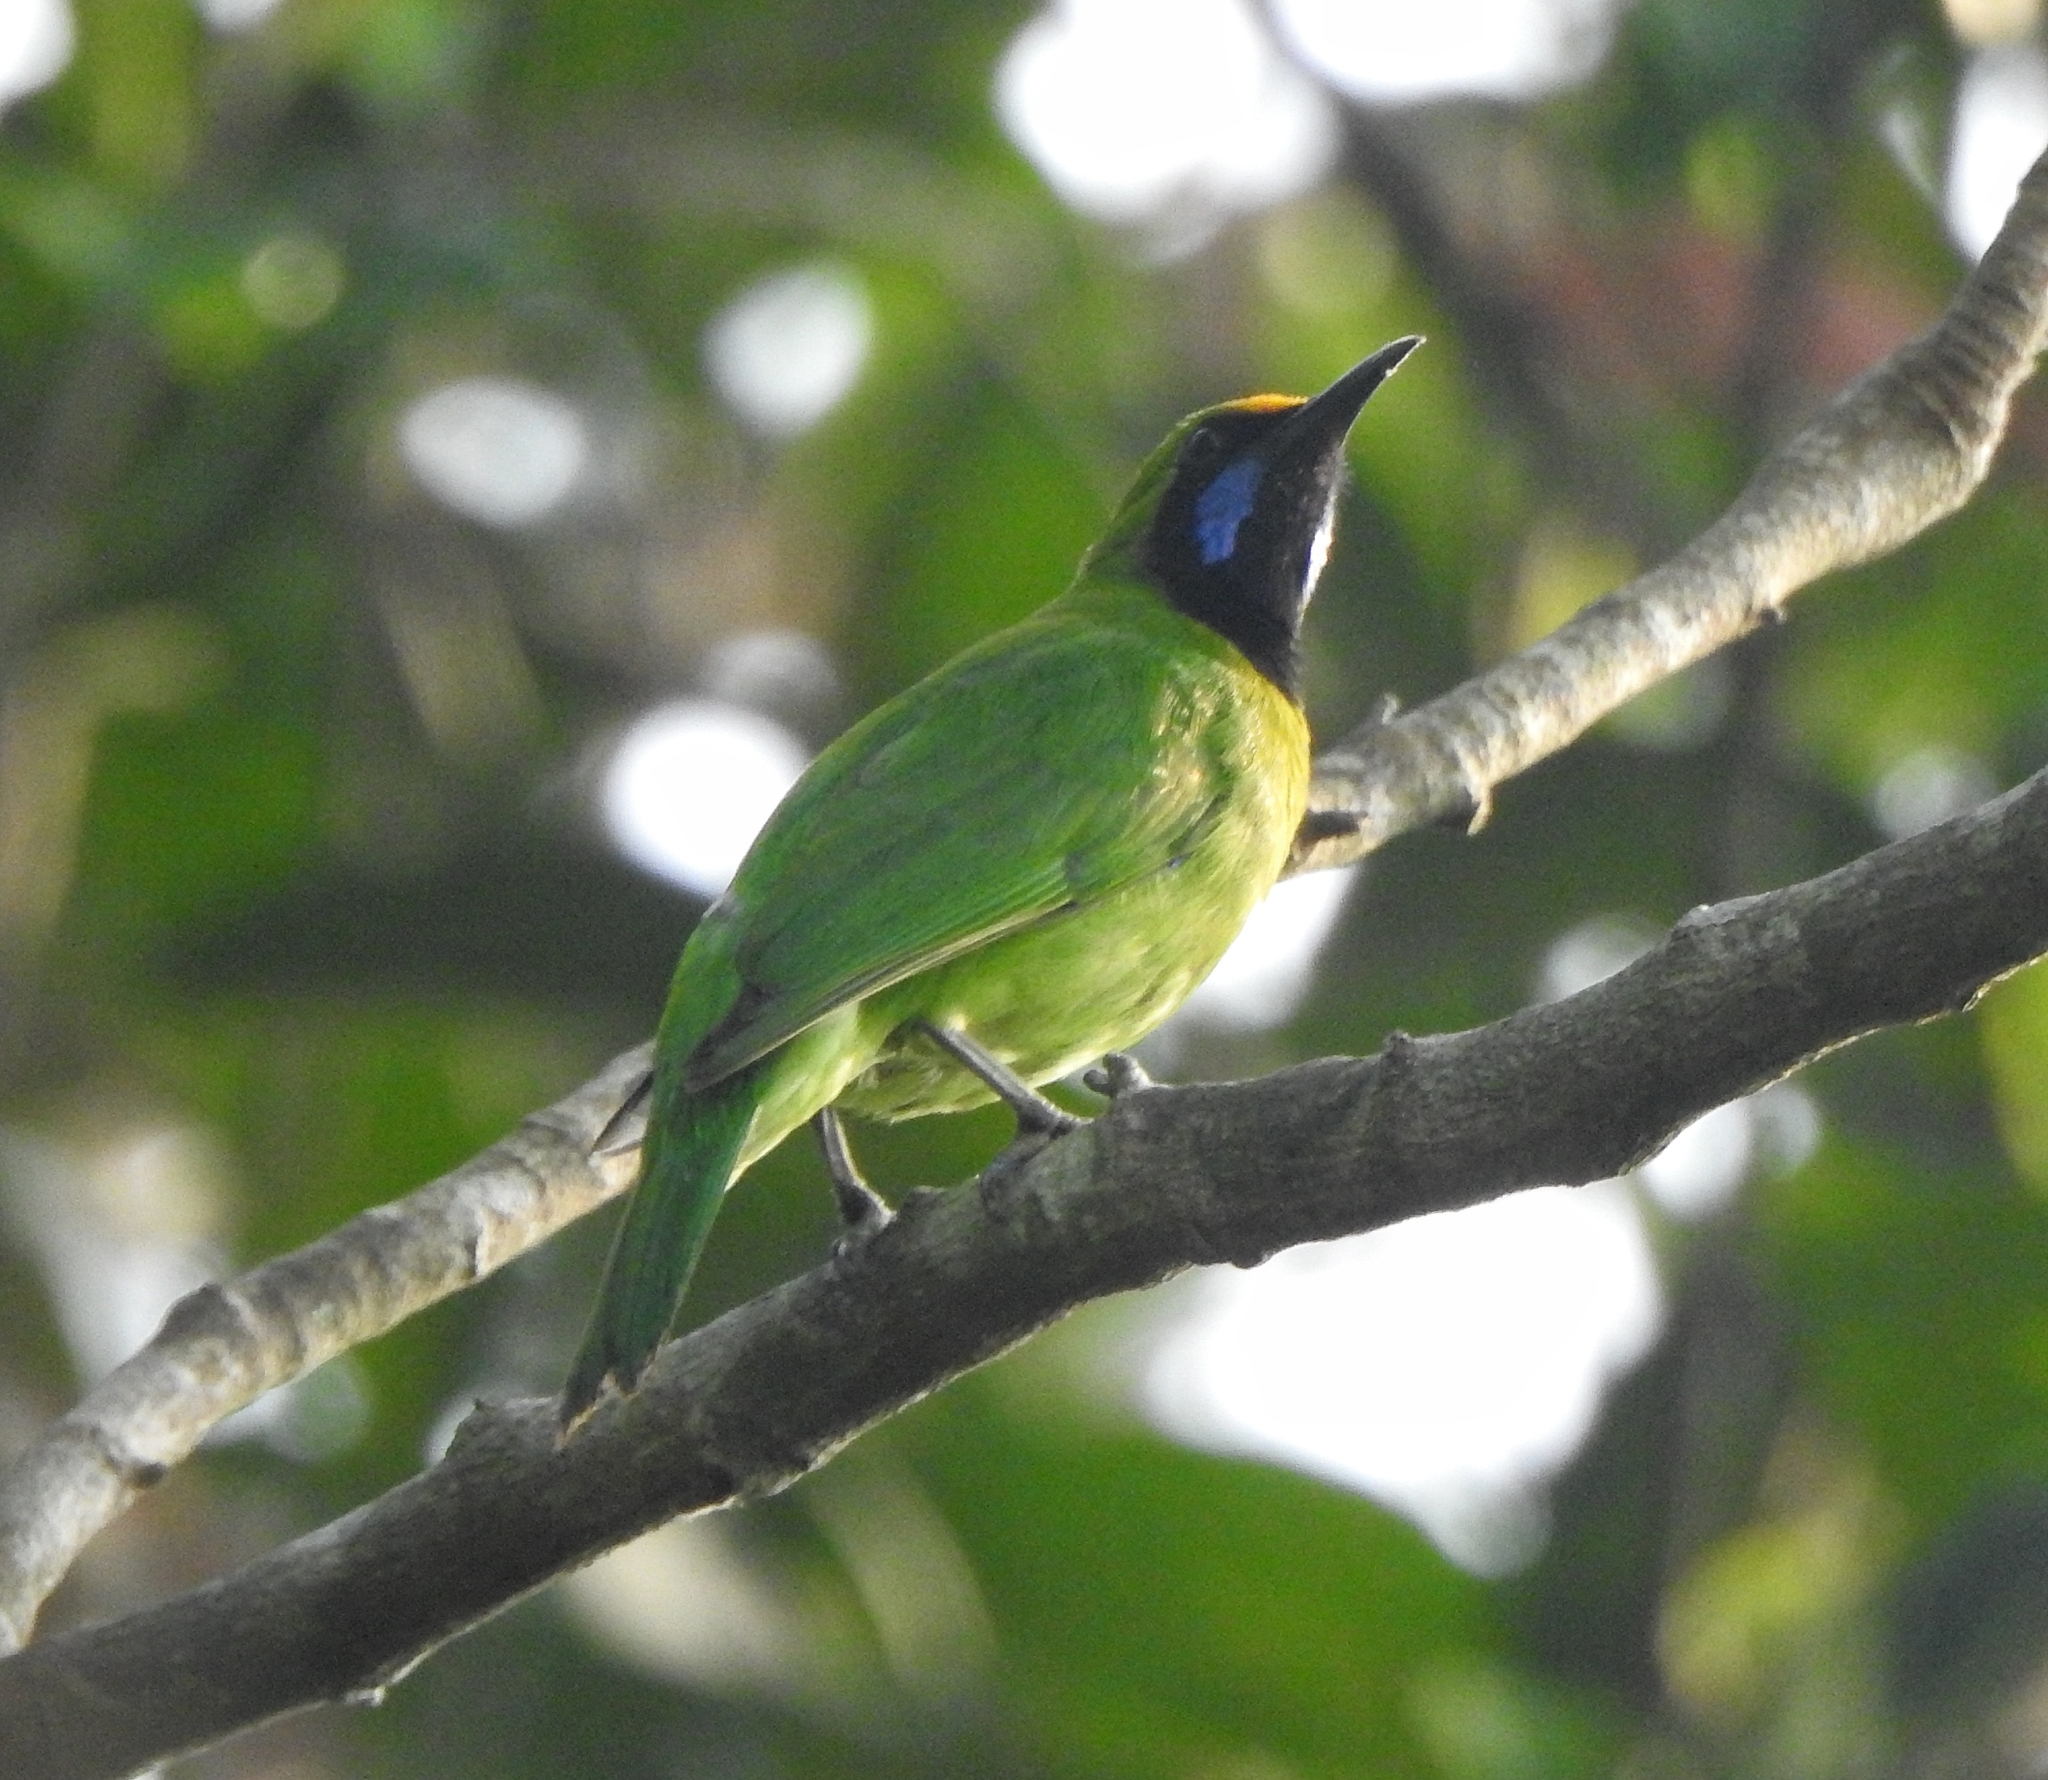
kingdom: Animalia
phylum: Chordata
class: Aves
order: Passeriformes
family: Chloropseidae
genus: Chloropsis
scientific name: Chloropsis aurifrons
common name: Golden-fronted leafbird
